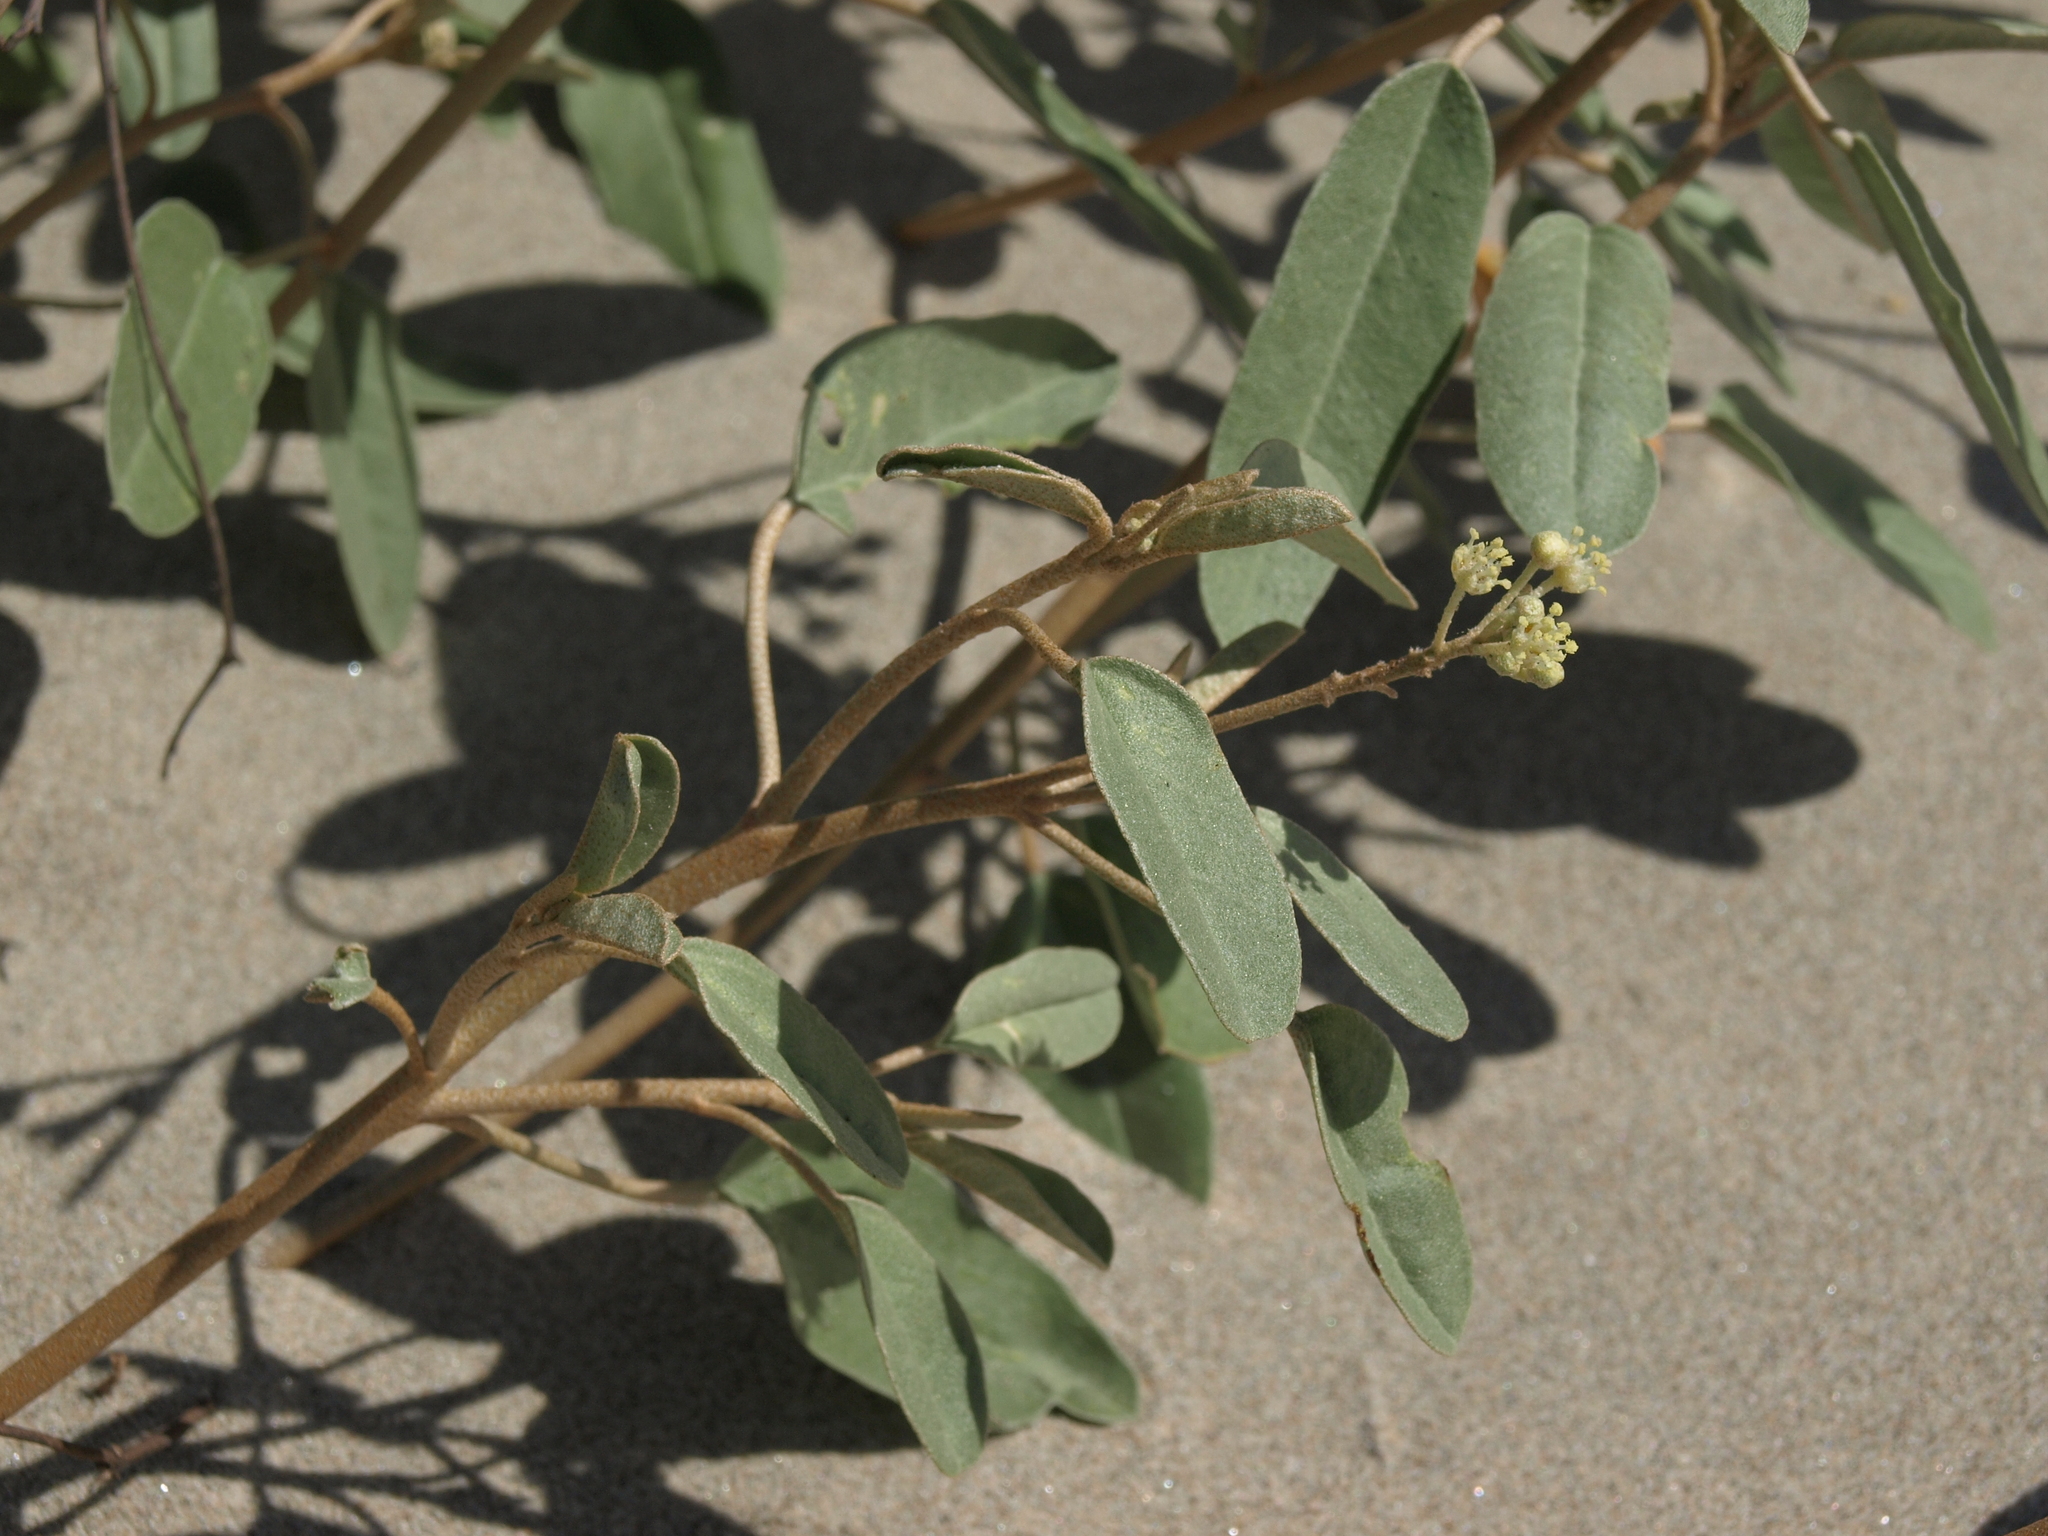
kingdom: Plantae
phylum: Tracheophyta
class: Magnoliopsida
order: Malpighiales
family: Euphorbiaceae
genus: Croton
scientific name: Croton californicus
